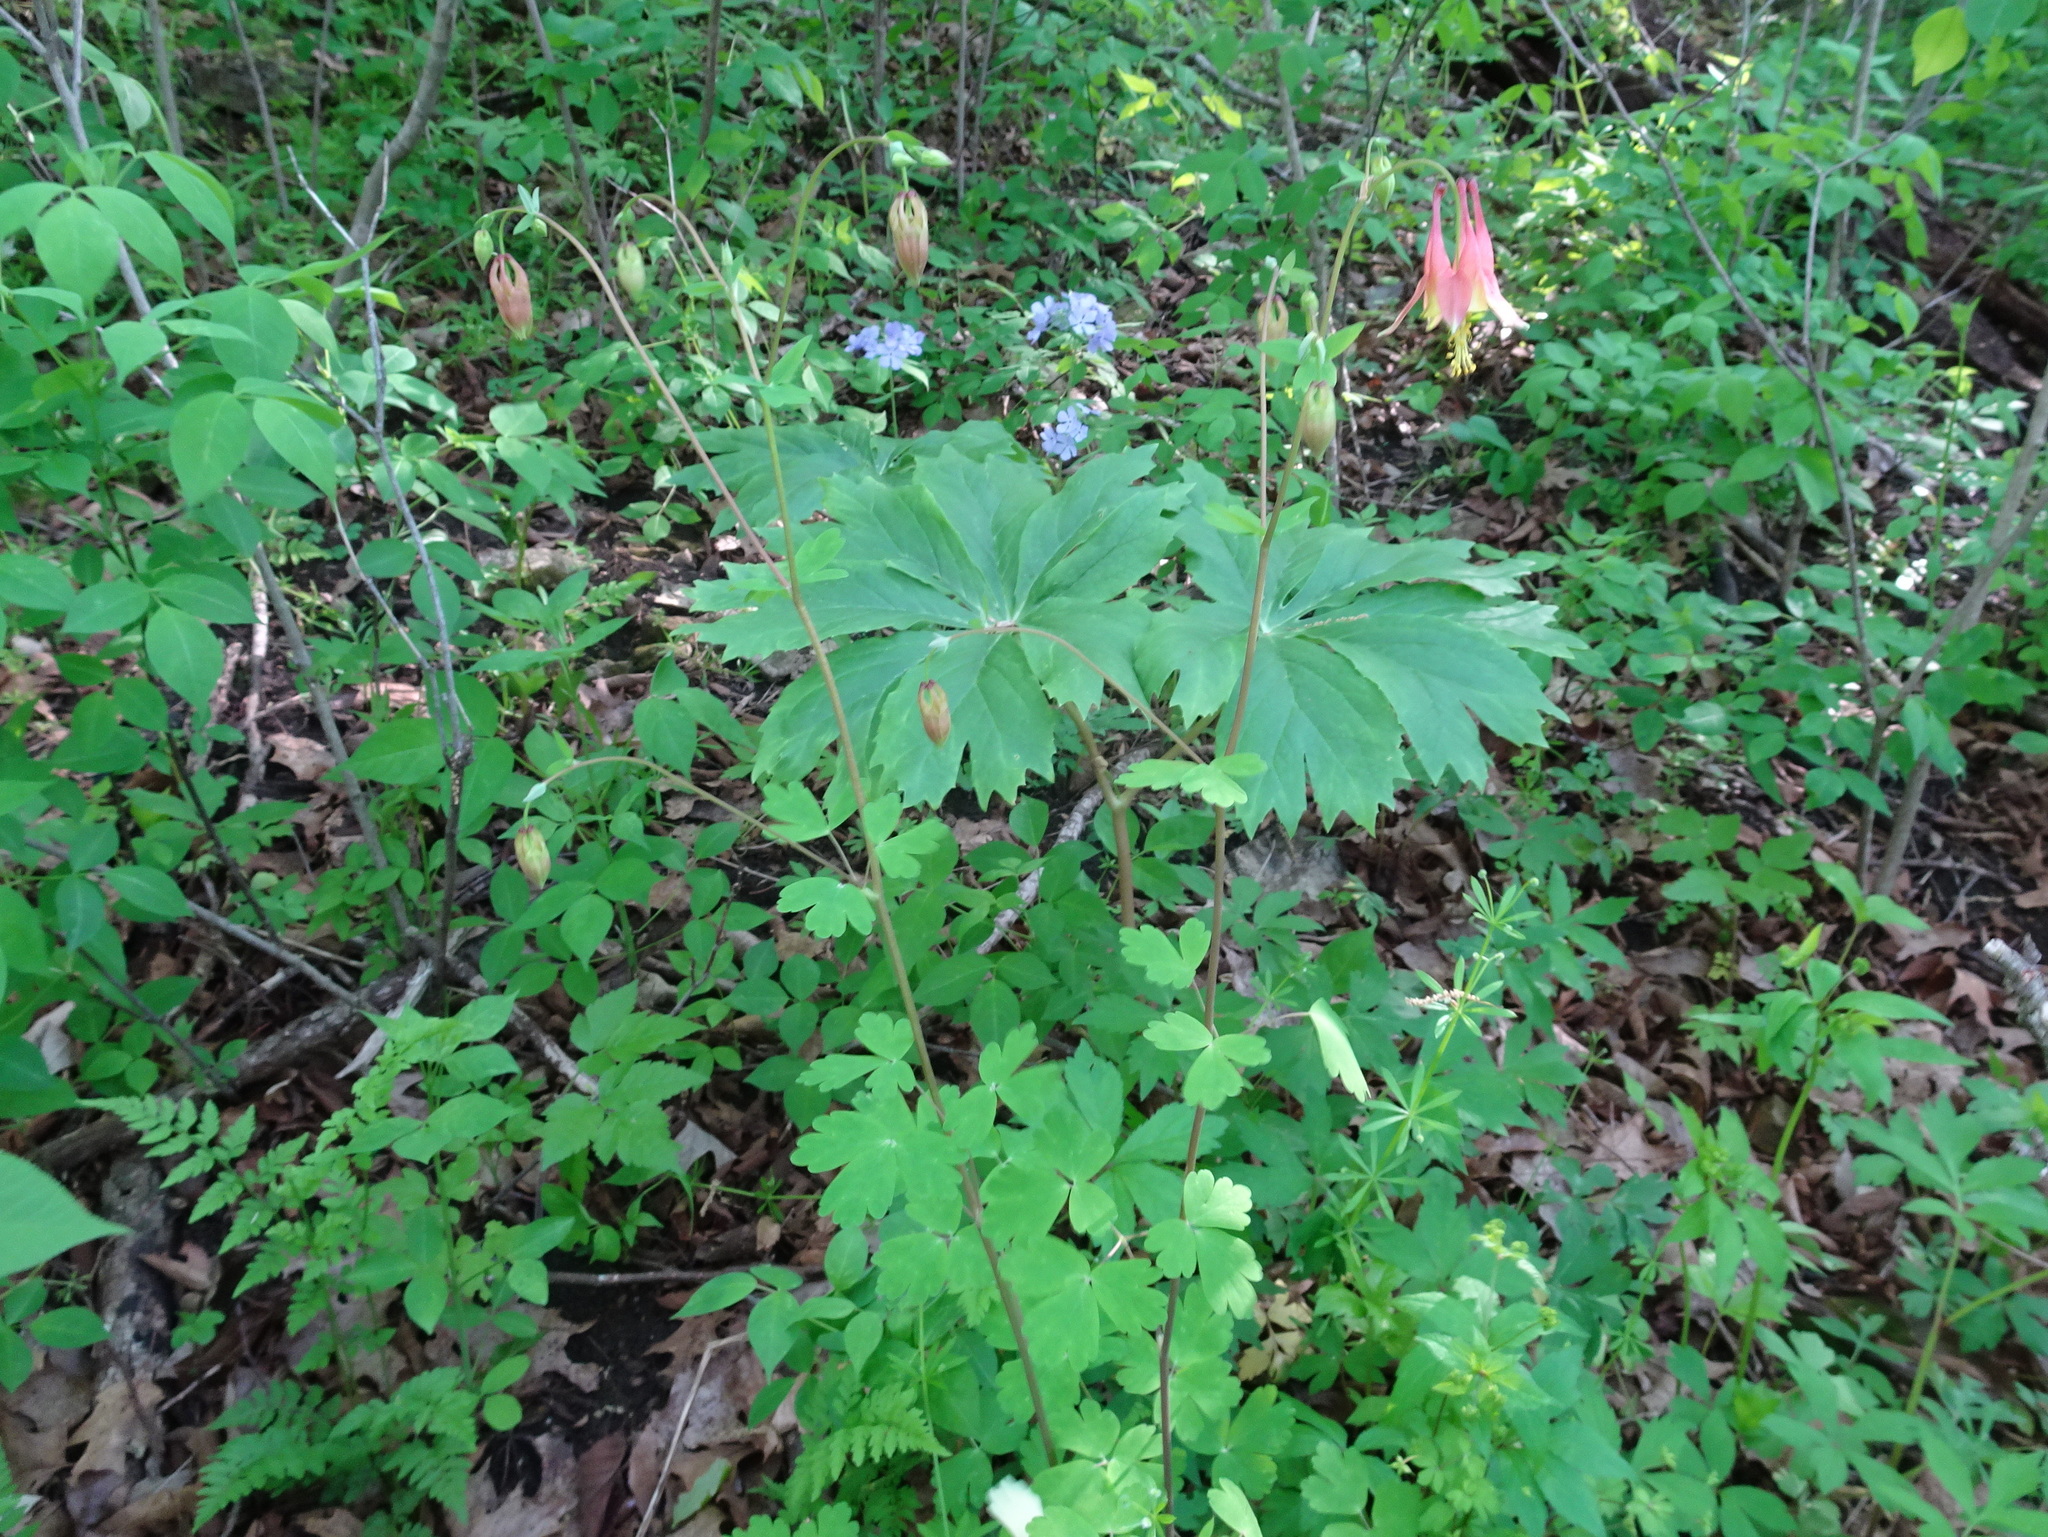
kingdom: Plantae
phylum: Tracheophyta
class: Magnoliopsida
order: Ranunculales
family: Ranunculaceae
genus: Aquilegia
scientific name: Aquilegia canadensis
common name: American columbine
